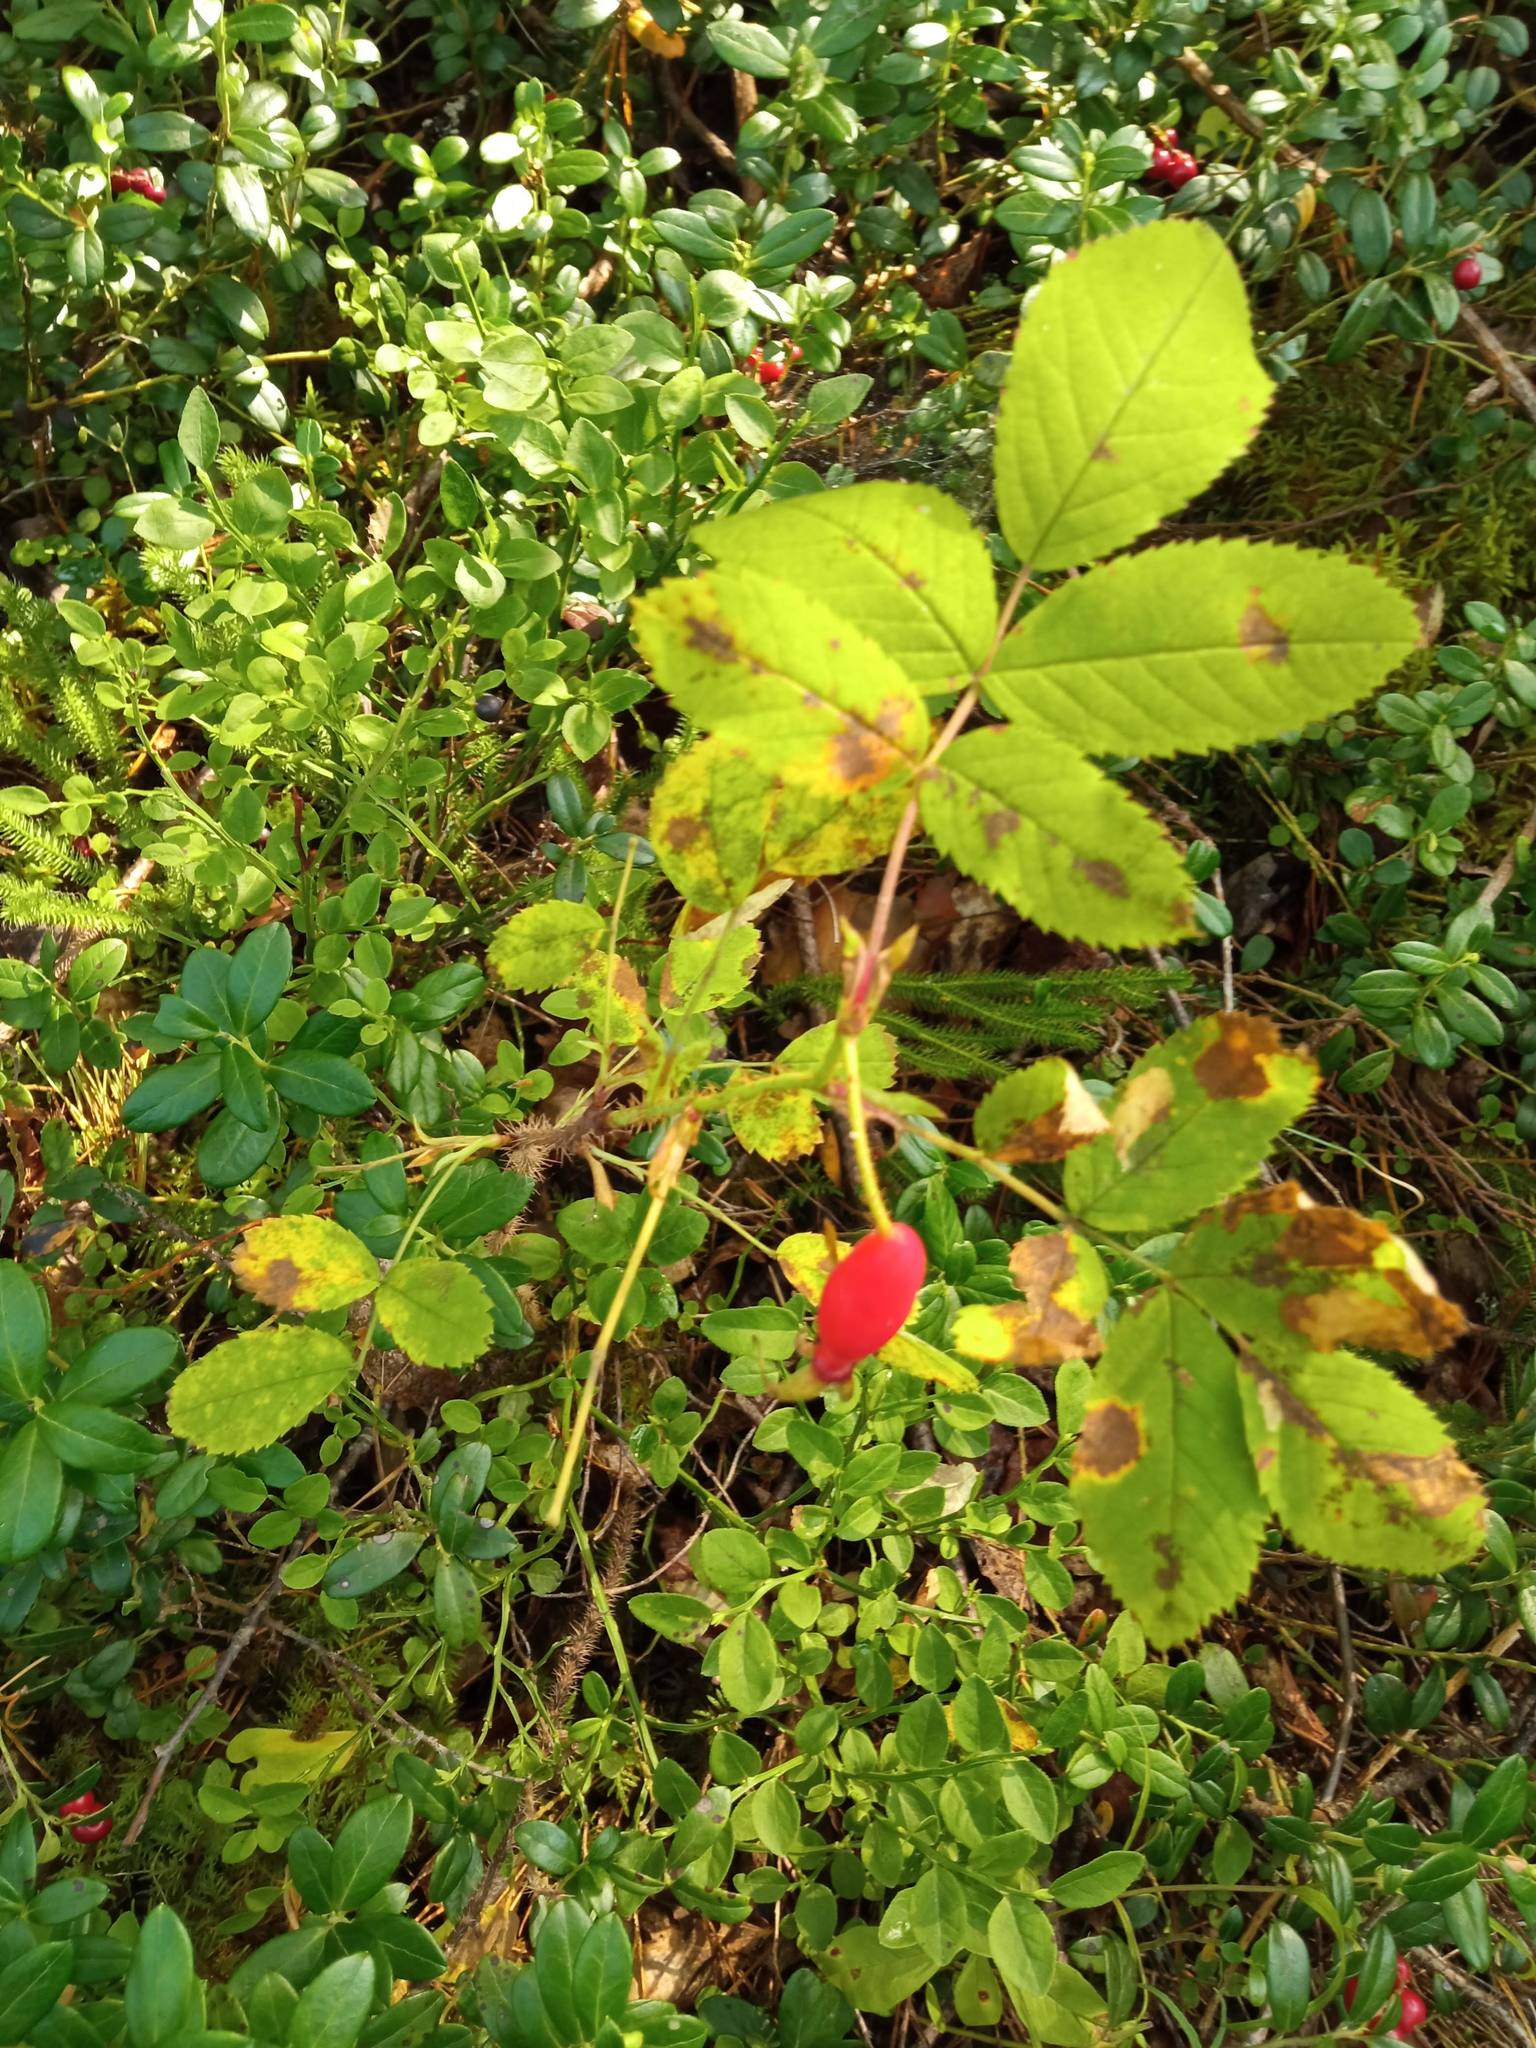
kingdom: Plantae
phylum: Tracheophyta
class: Magnoliopsida
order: Rosales
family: Rosaceae
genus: Rosa
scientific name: Rosa acicularis
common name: Prickly rose
